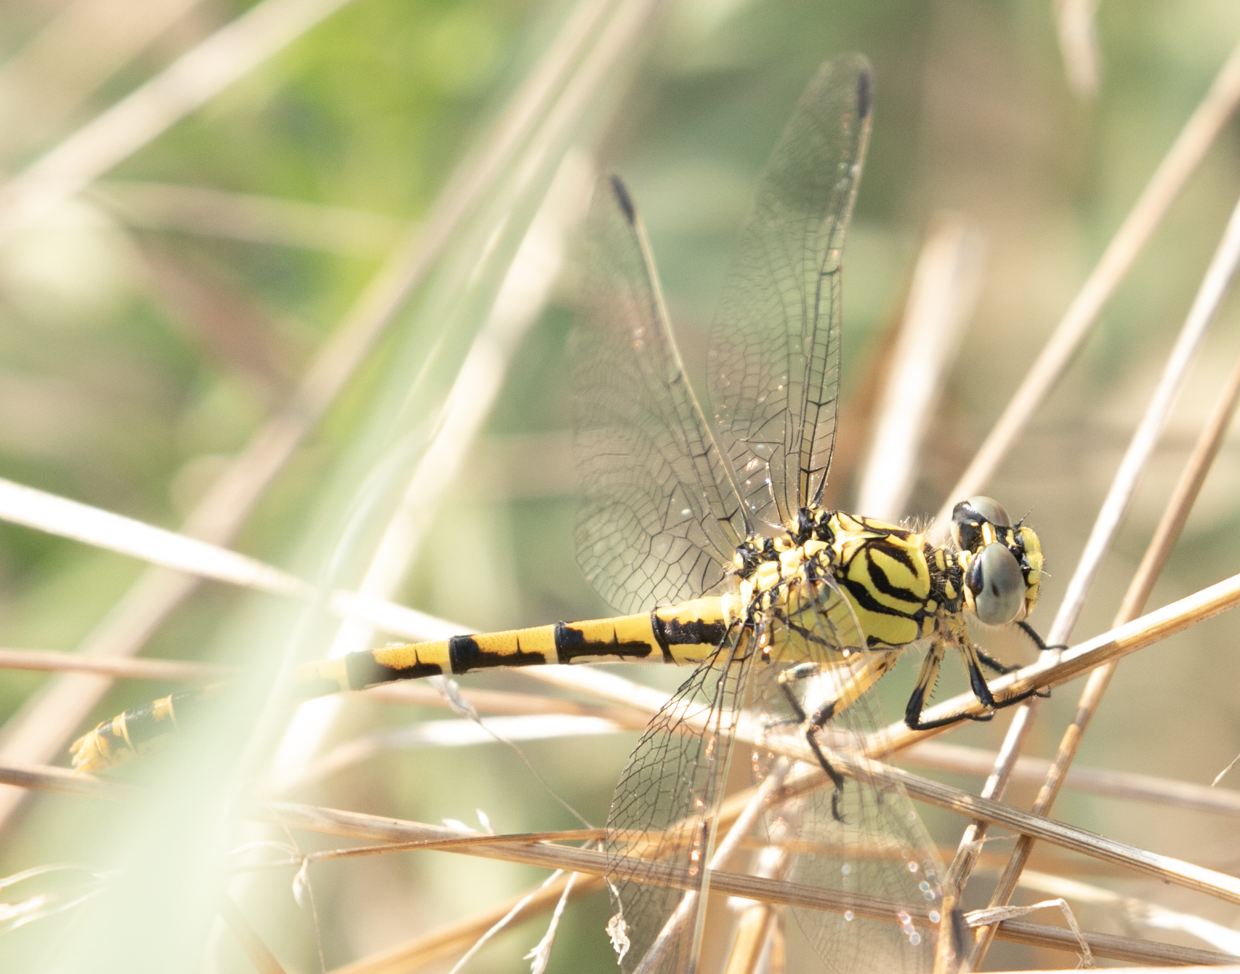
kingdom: Animalia
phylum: Arthropoda
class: Insecta
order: Odonata
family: Gomphidae
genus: Onychogomphus
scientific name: Onychogomphus forcipatus
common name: Small pincertail
